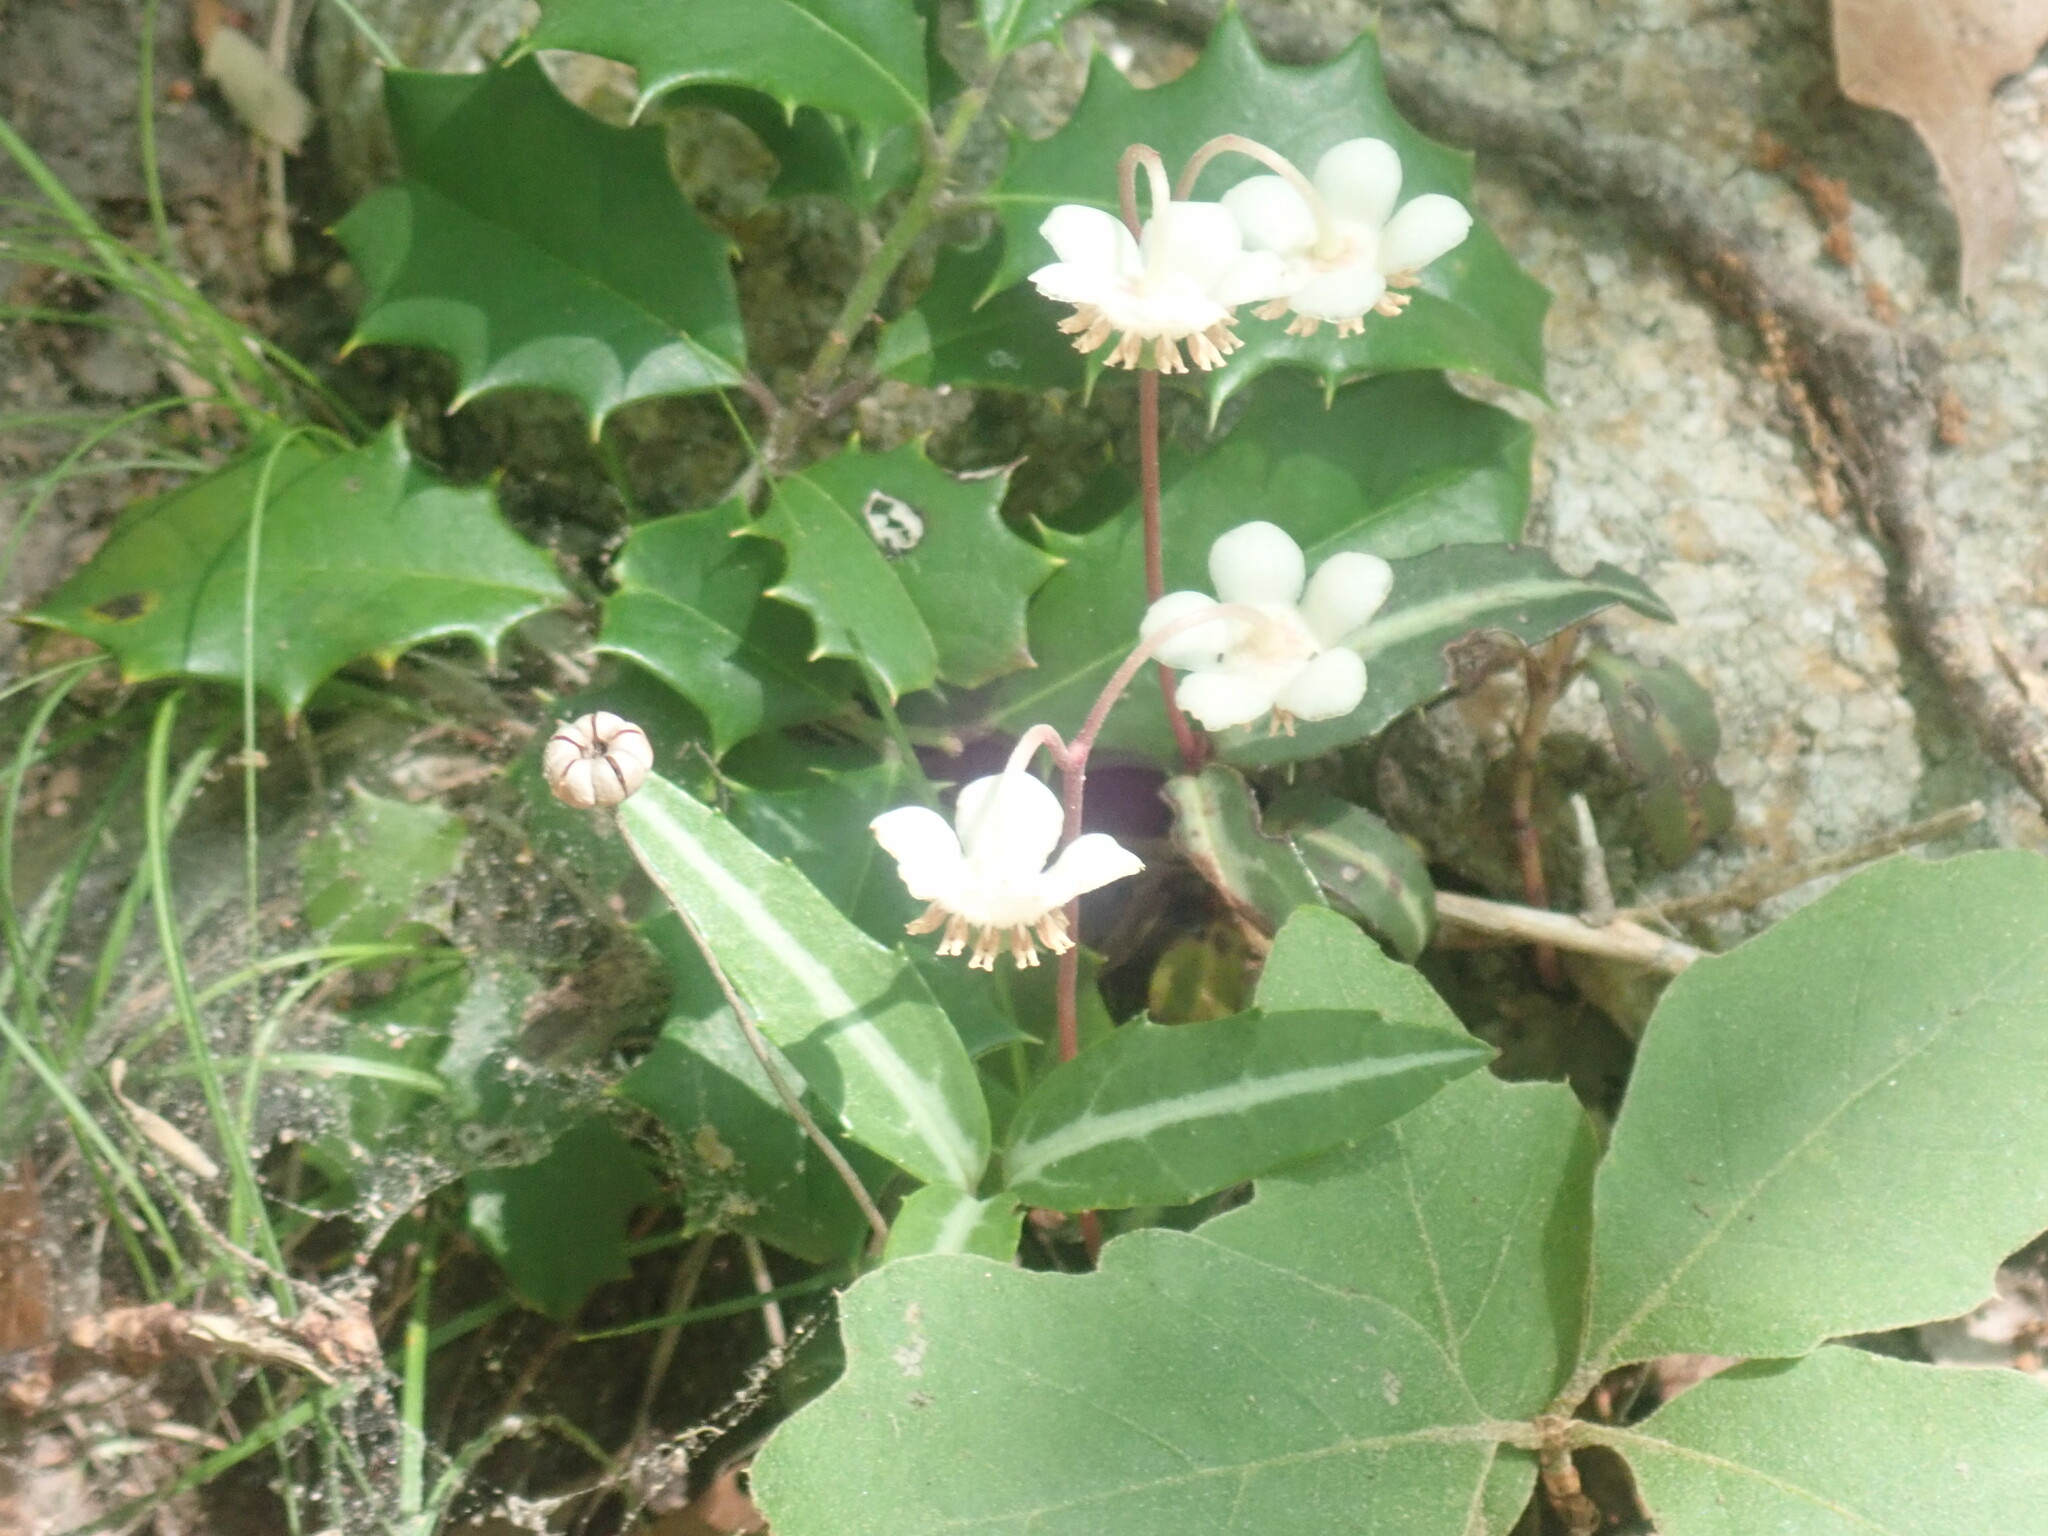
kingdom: Plantae
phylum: Tracheophyta
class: Magnoliopsida
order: Ericales
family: Ericaceae
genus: Chimaphila
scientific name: Chimaphila maculata
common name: Spotted pipsissewa
